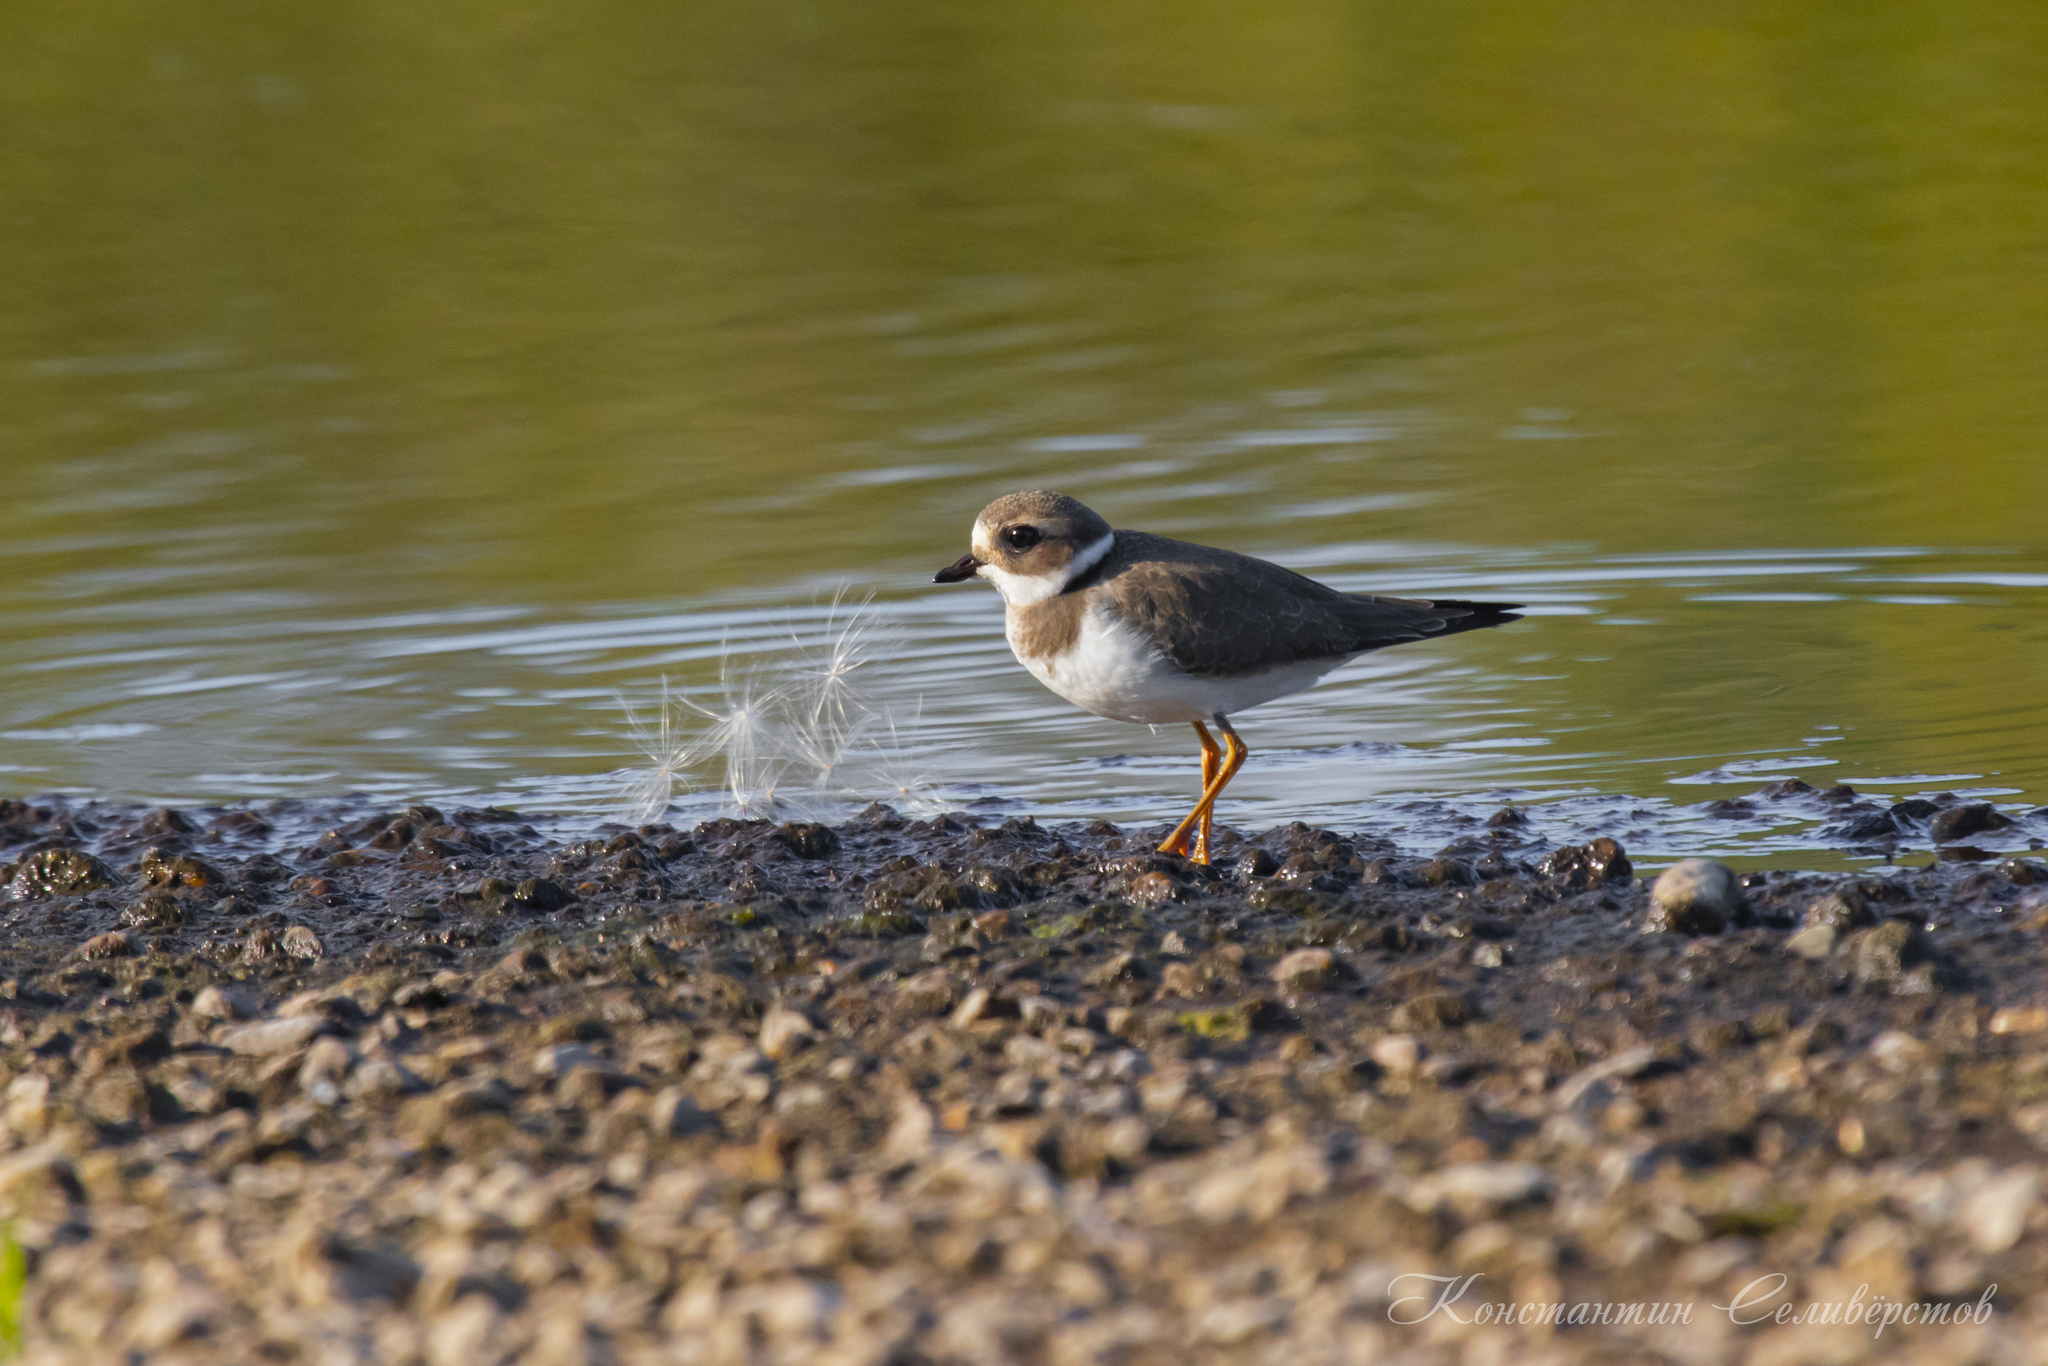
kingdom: Animalia
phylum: Chordata
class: Aves
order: Charadriiformes
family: Charadriidae
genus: Charadrius
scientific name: Charadrius hiaticula
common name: Common ringed plover
